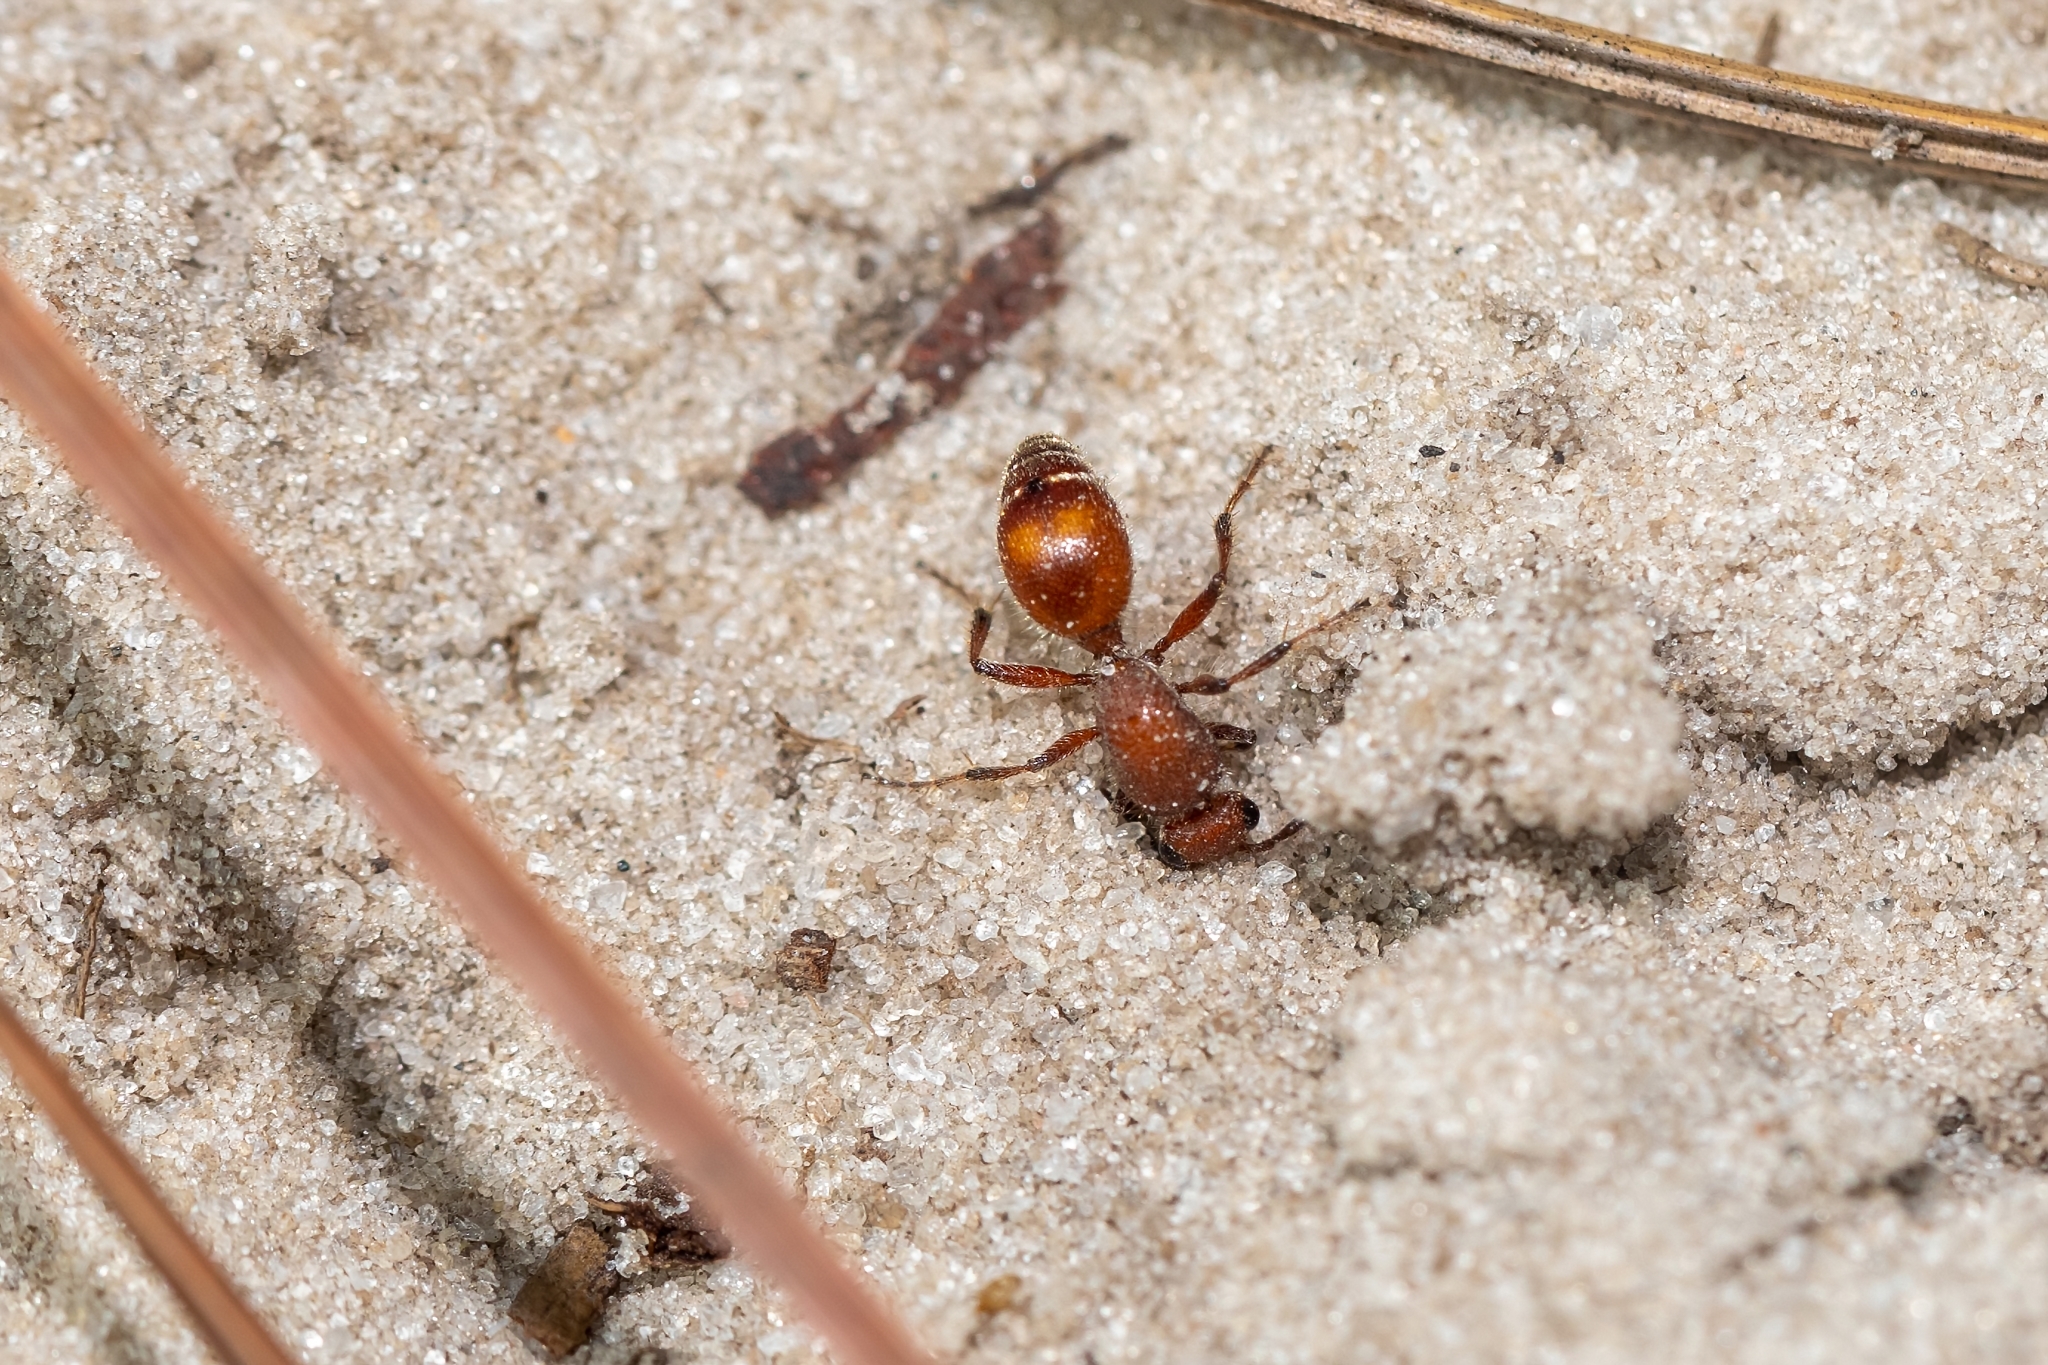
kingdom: Animalia
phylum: Arthropoda
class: Insecta
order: Hymenoptera
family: Mutillidae
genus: Dasymutilla
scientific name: Dasymutilla arenerronea
